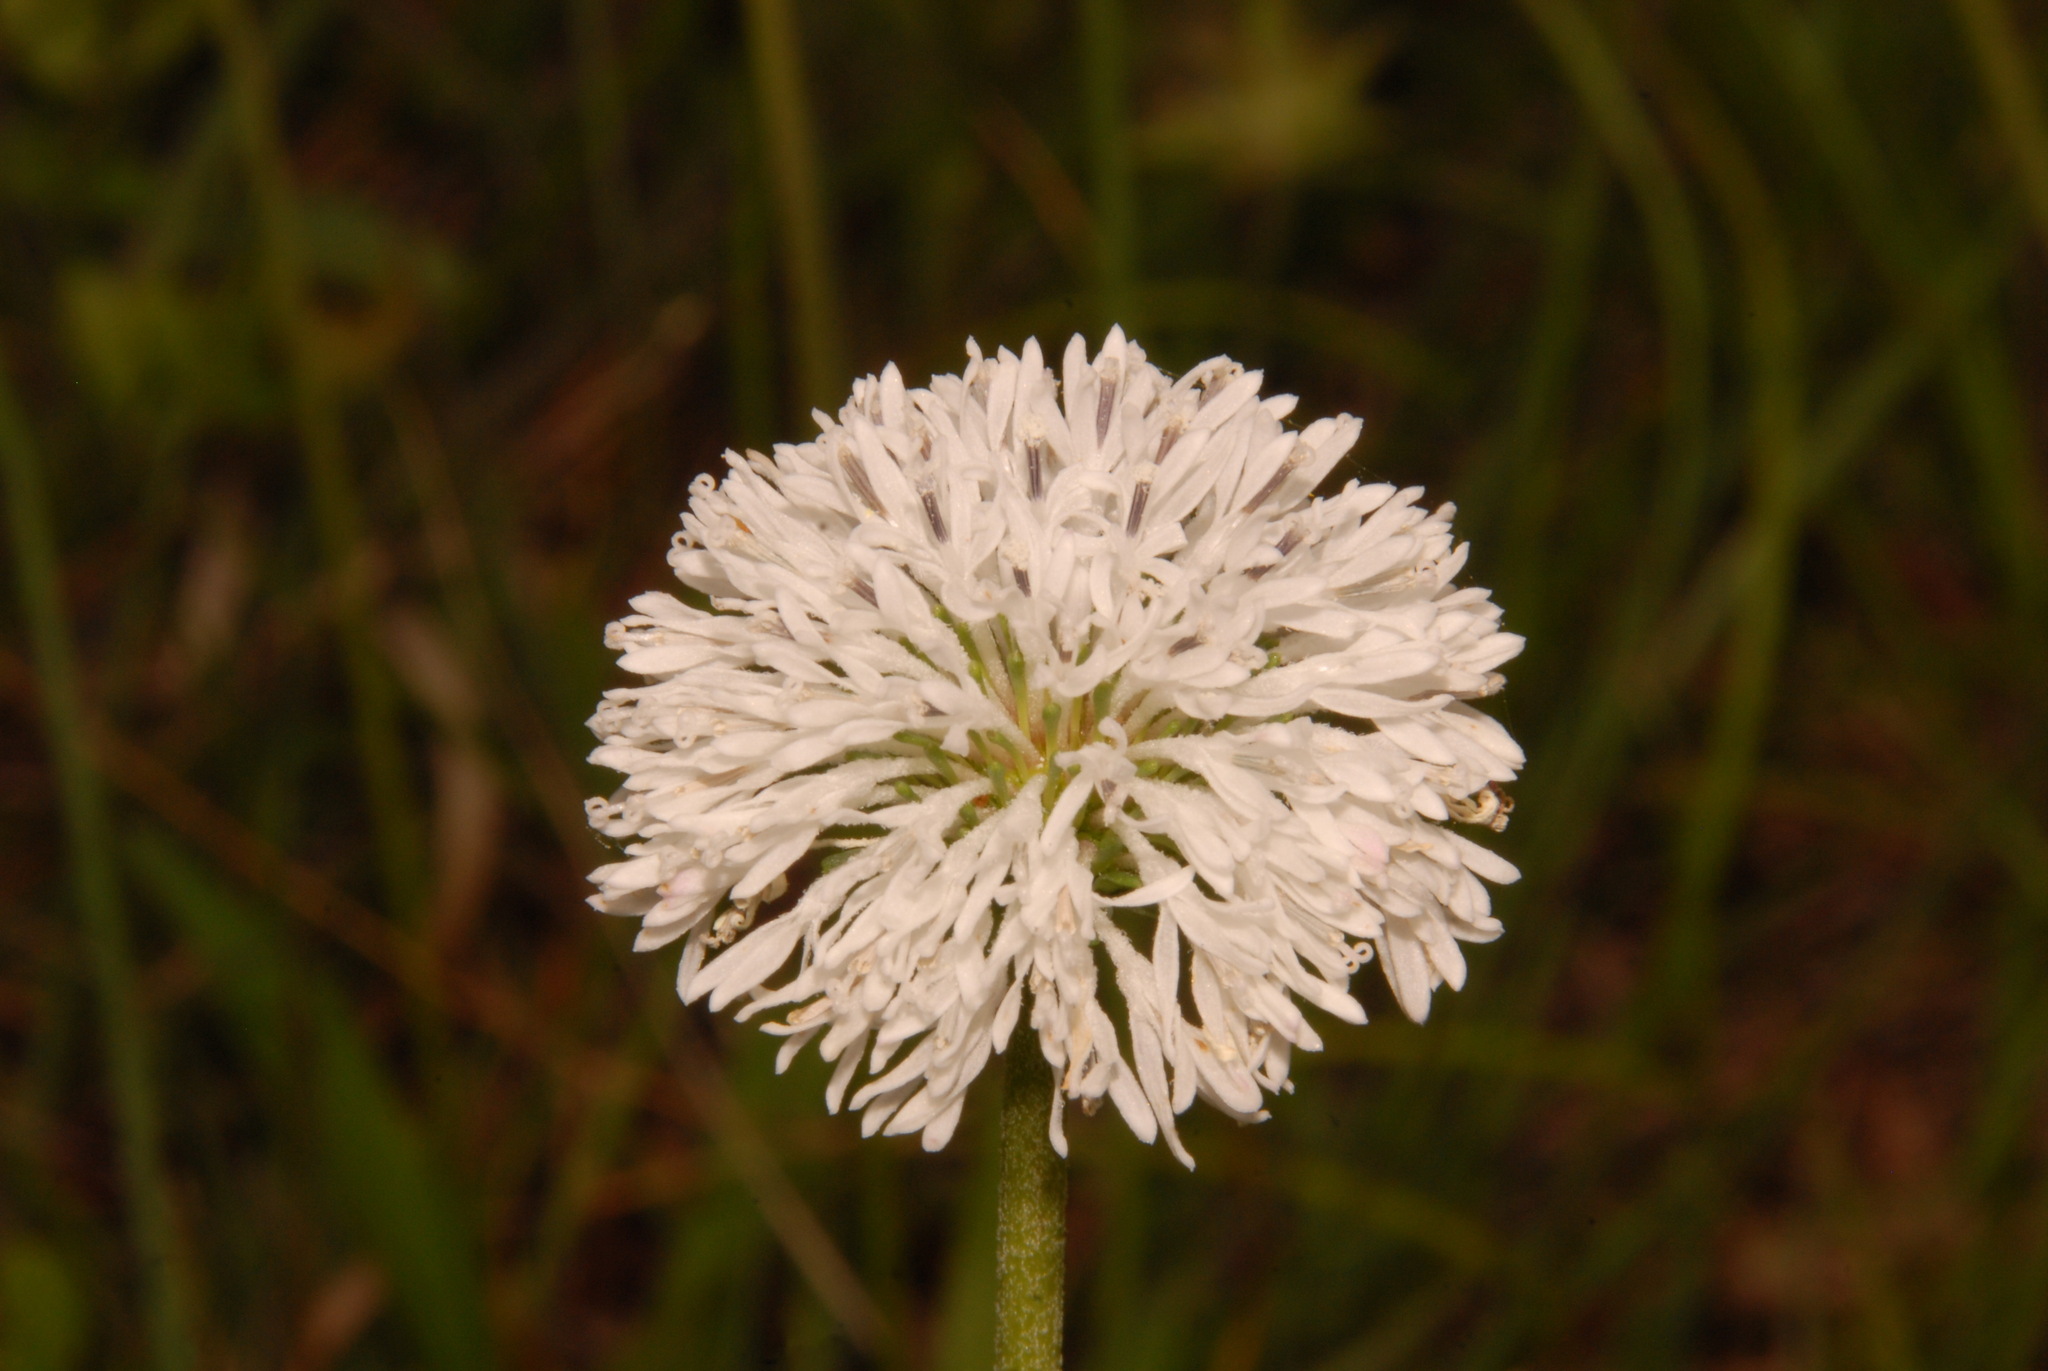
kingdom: Plantae
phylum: Tracheophyta
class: Magnoliopsida
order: Asterales
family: Asteraceae
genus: Marshallia
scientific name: Marshallia obovata
